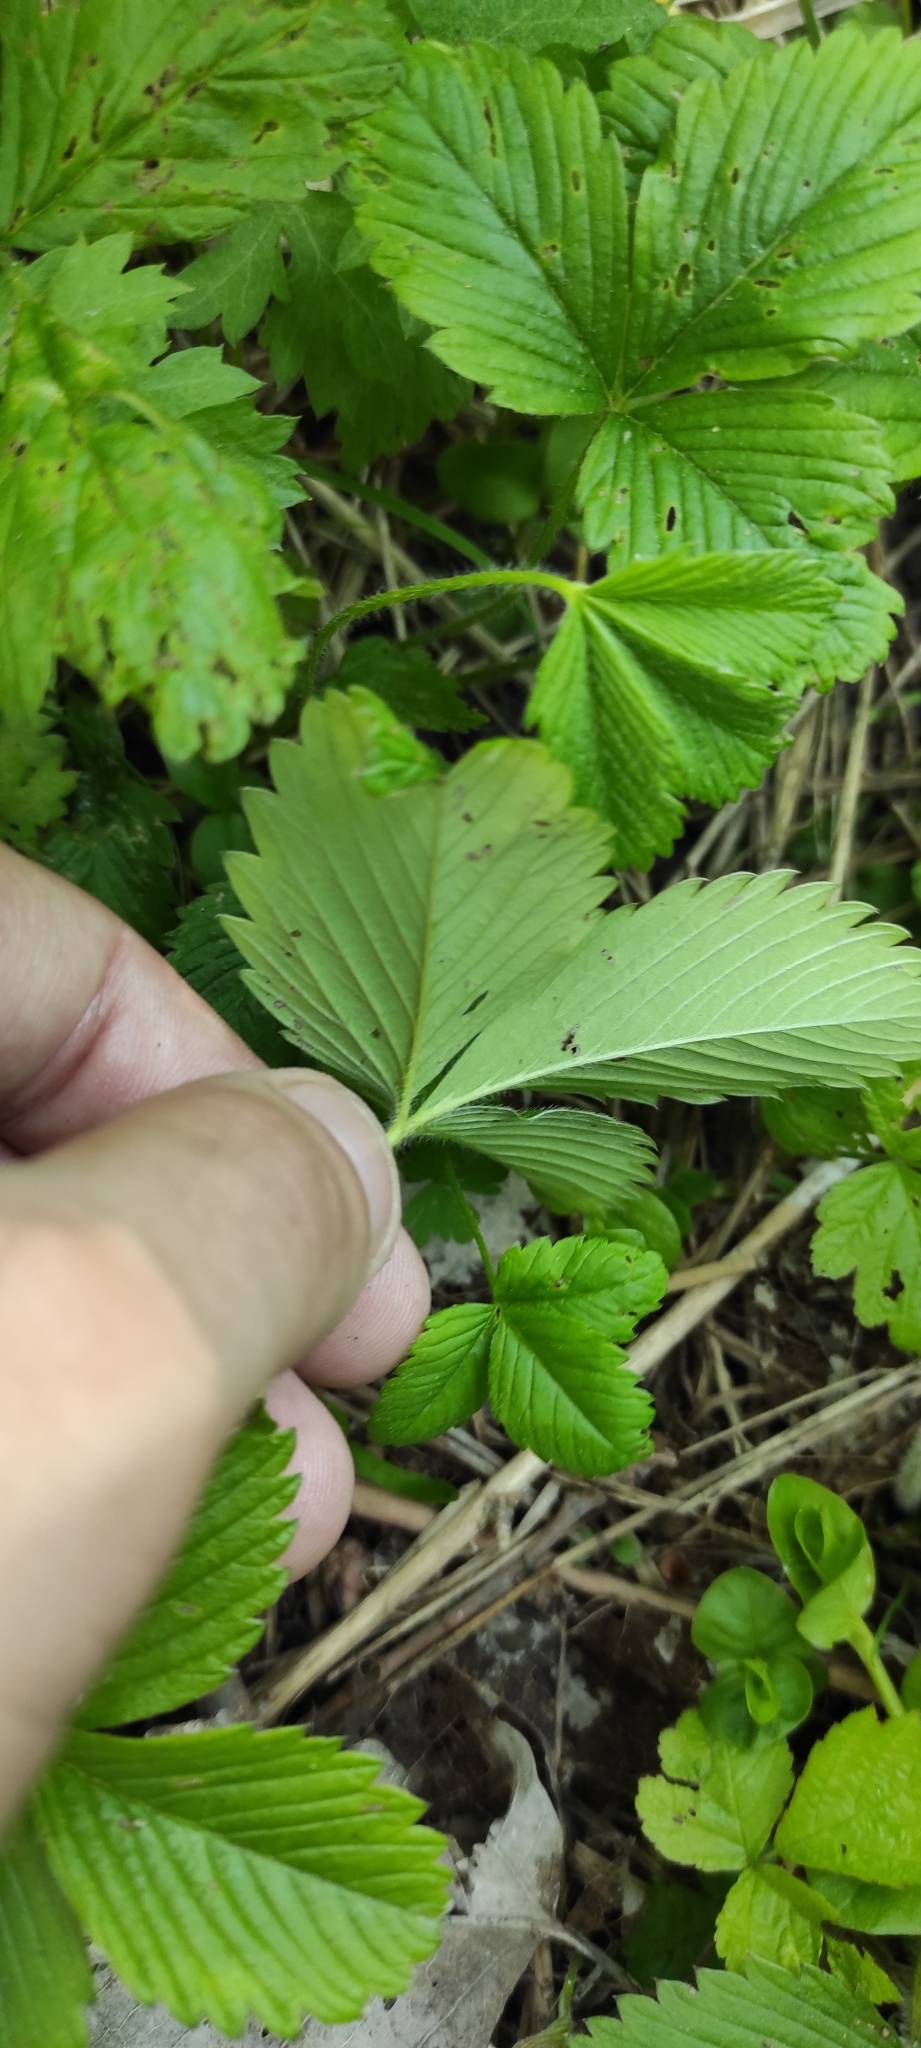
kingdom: Plantae
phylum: Tracheophyta
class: Magnoliopsida
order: Rosales
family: Rosaceae
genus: Fragaria
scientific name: Fragaria viridis
